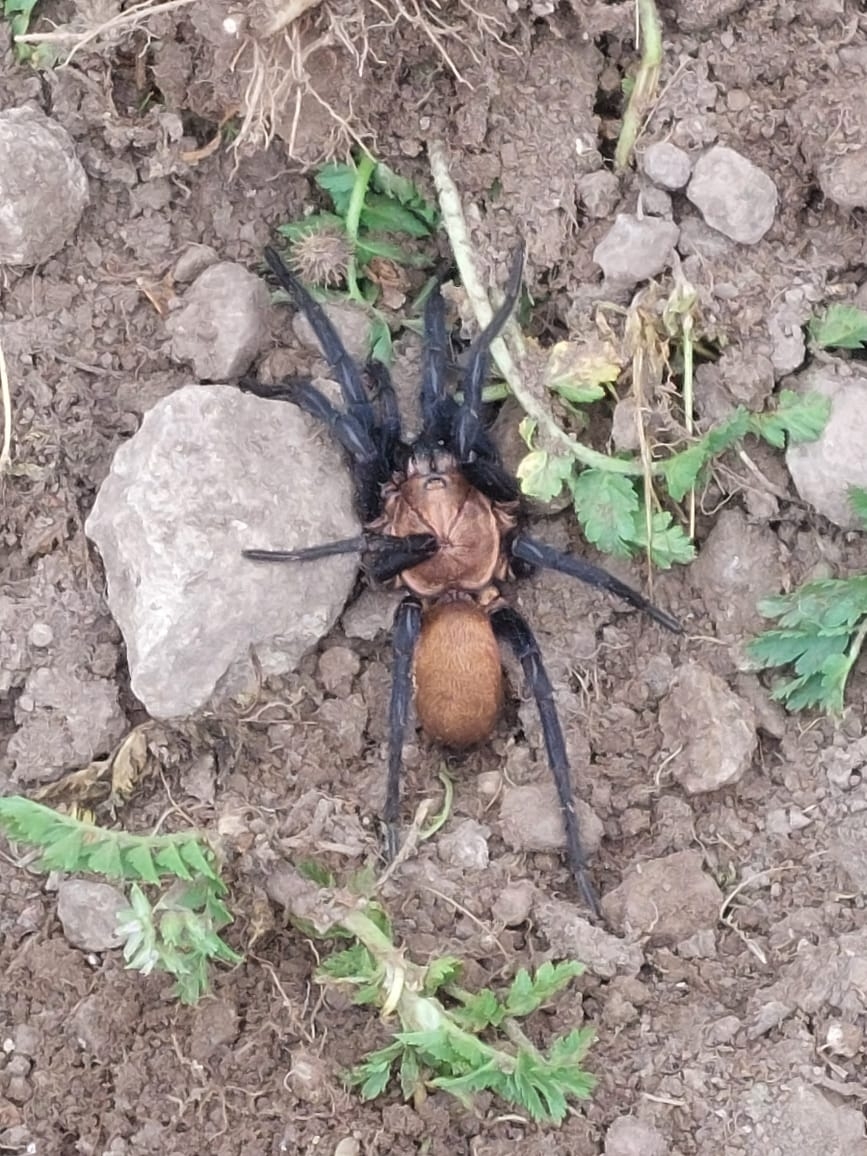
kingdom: Animalia
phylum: Arthropoda
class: Arachnida
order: Araneae
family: Dipluridae
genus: Linothele
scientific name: Linothele uniformis
